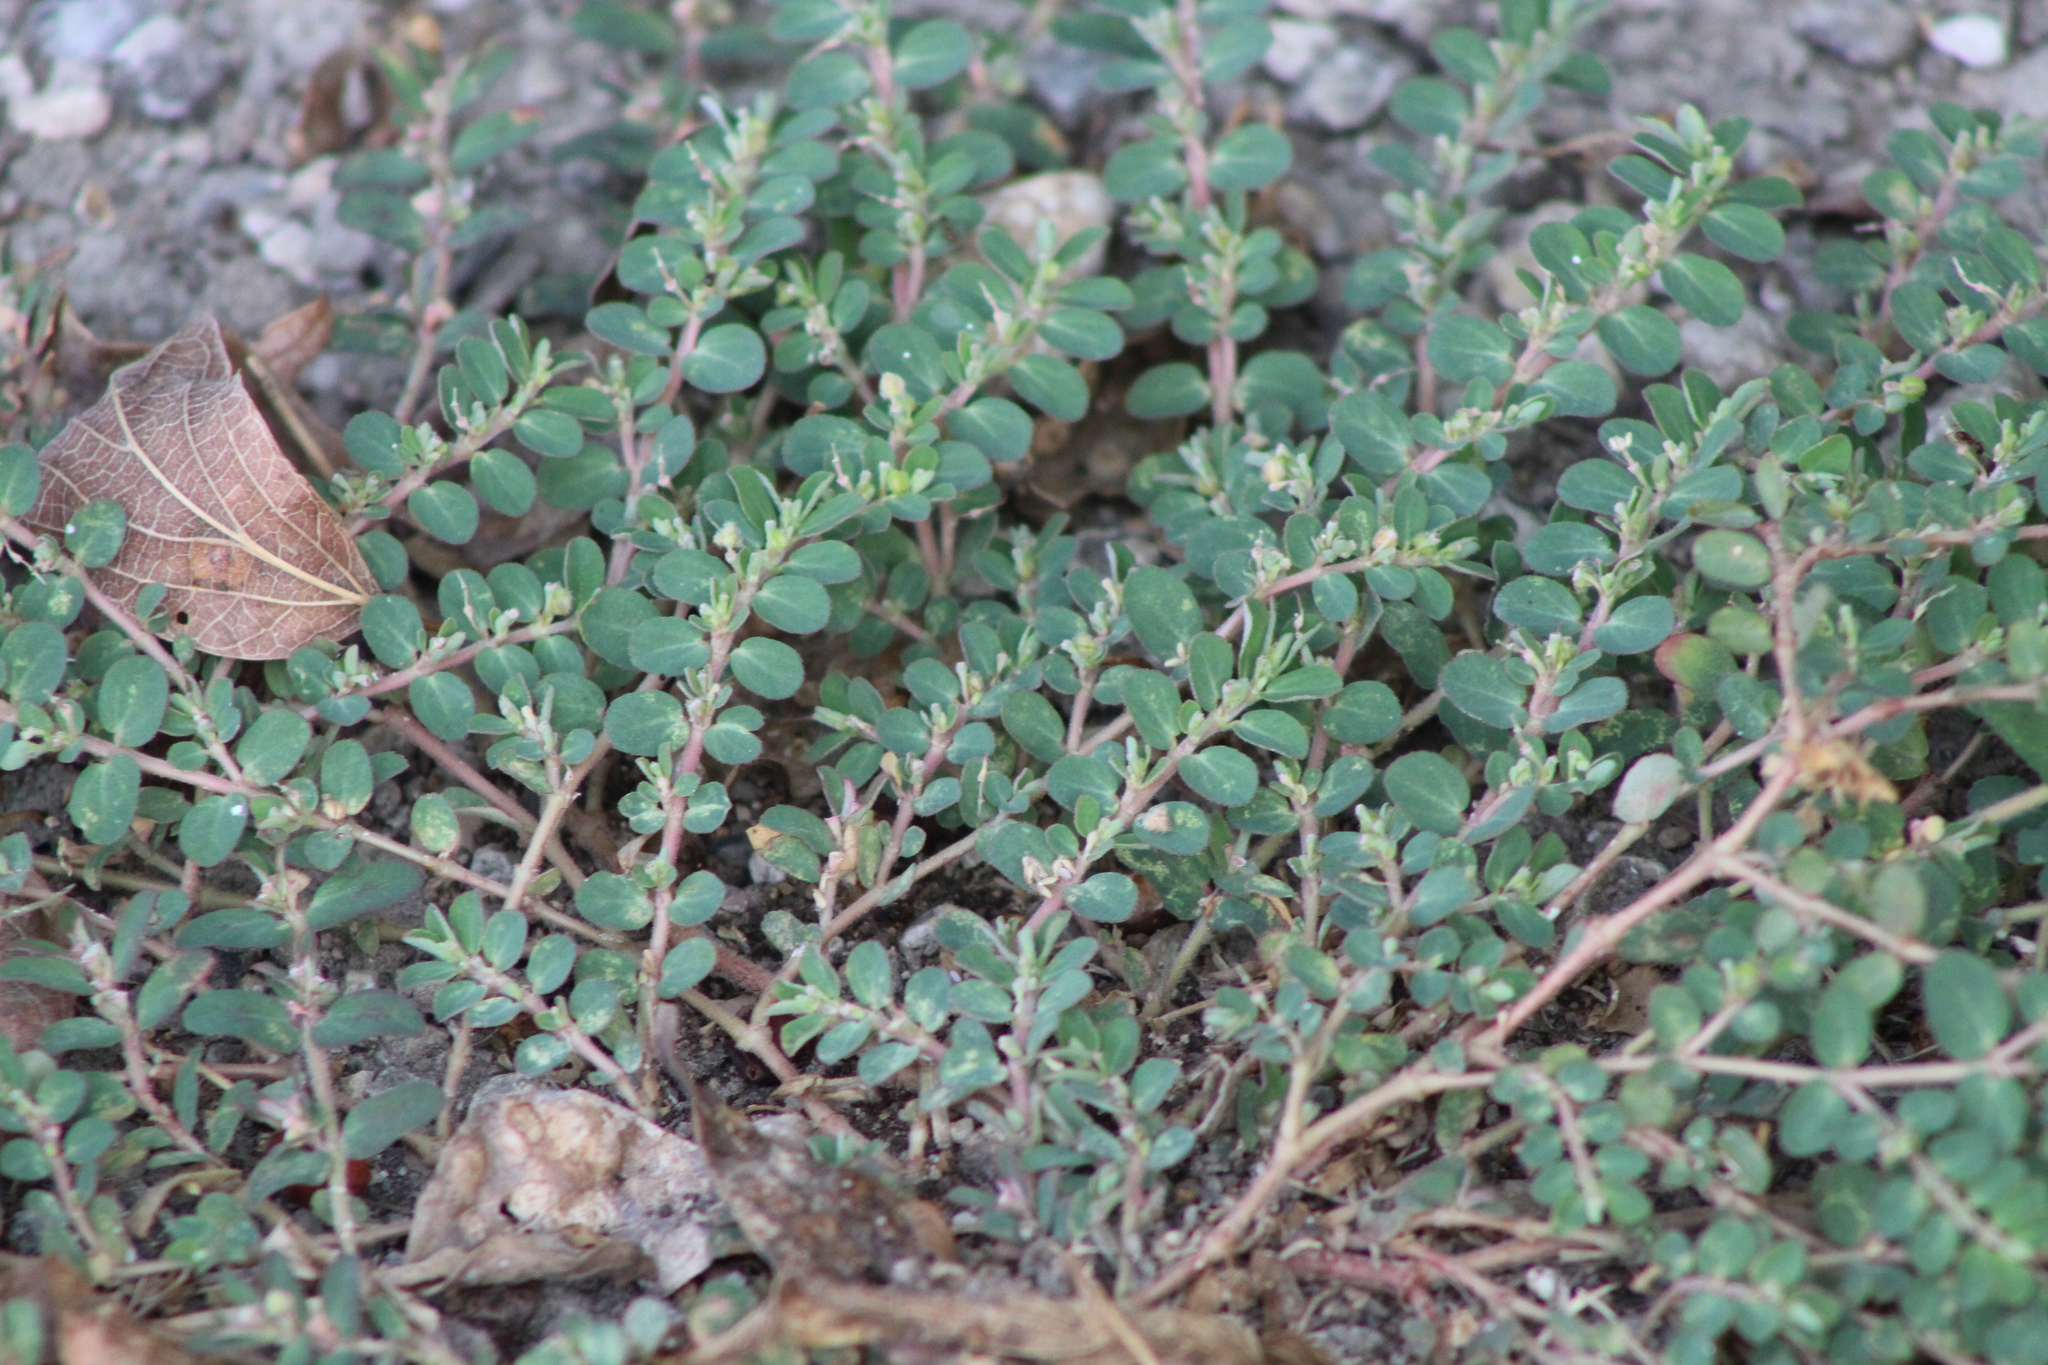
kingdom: Plantae
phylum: Tracheophyta
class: Magnoliopsida
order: Malpighiales
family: Euphorbiaceae
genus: Euphorbia
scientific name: Euphorbia prostrata
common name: Prostrate sandmat
